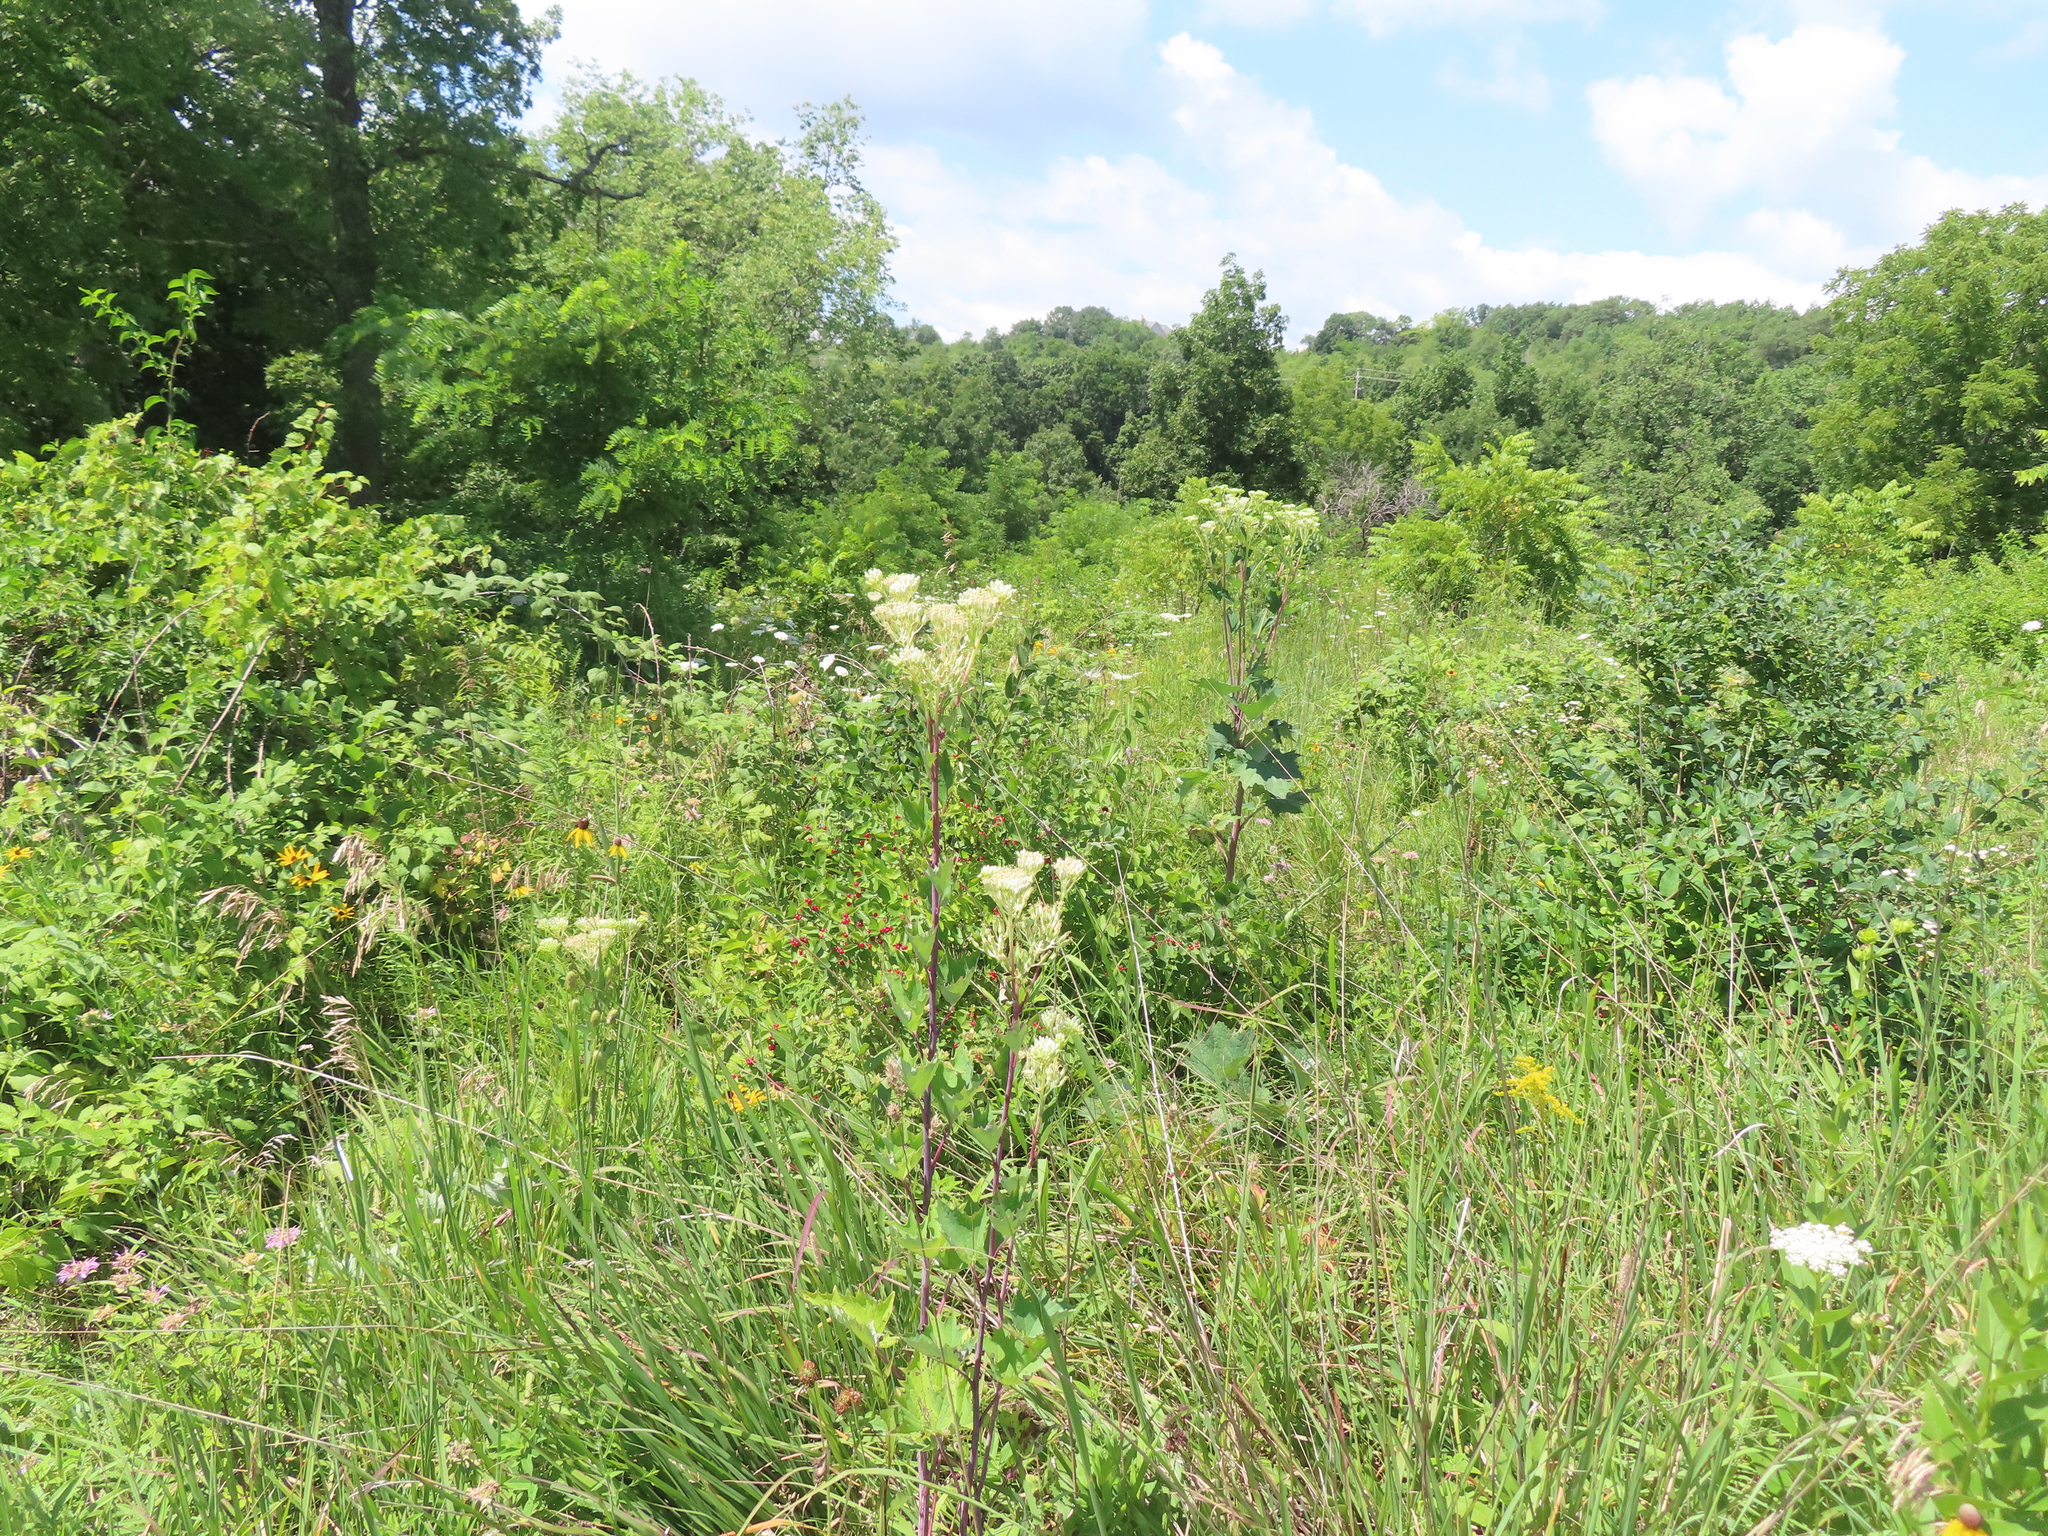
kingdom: Plantae
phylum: Tracheophyta
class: Magnoliopsida
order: Asterales
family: Asteraceae
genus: Arnoglossum
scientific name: Arnoglossum atriplicifolium
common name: Pale indian-plantain
